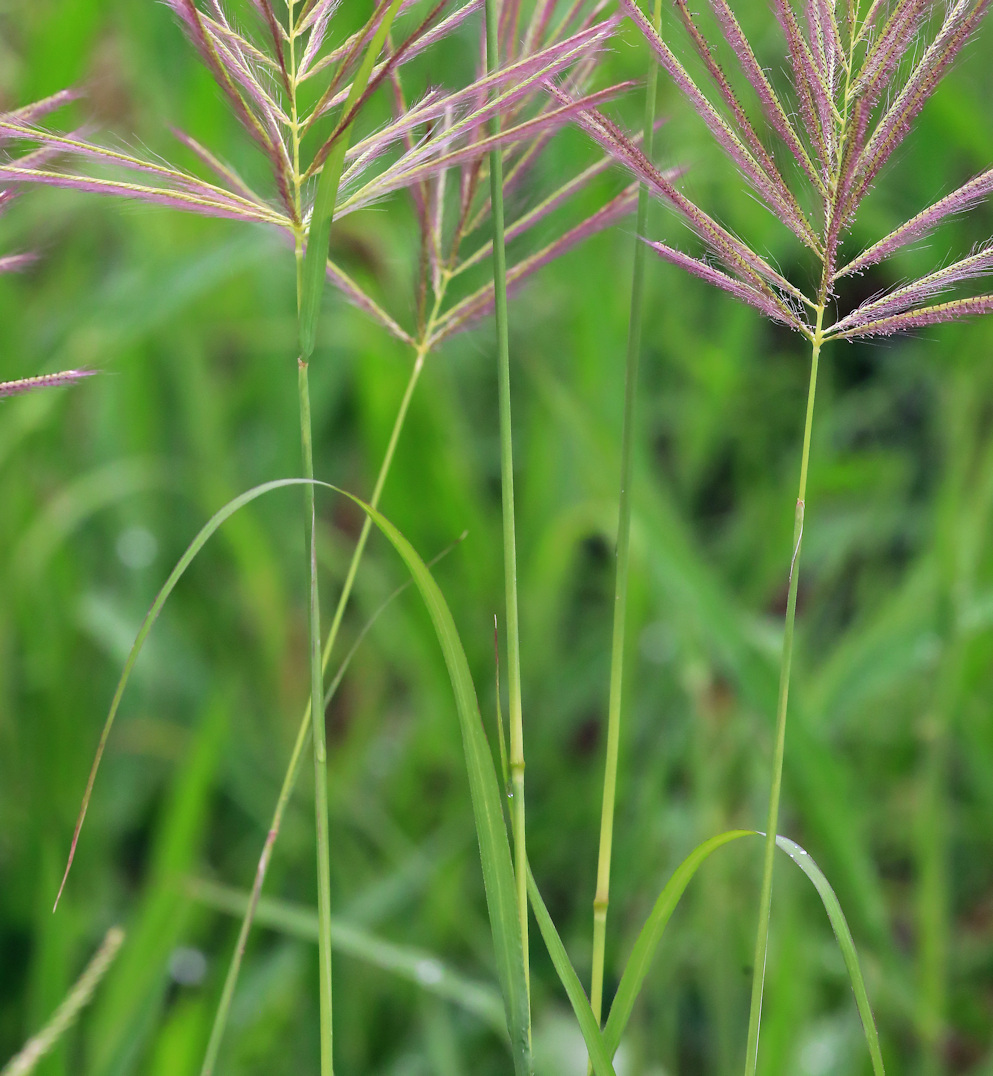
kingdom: Plantae
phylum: Tracheophyta
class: Liliopsida
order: Poales
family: Poaceae
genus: Tetrapogon
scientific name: Tetrapogon roxburghiana
